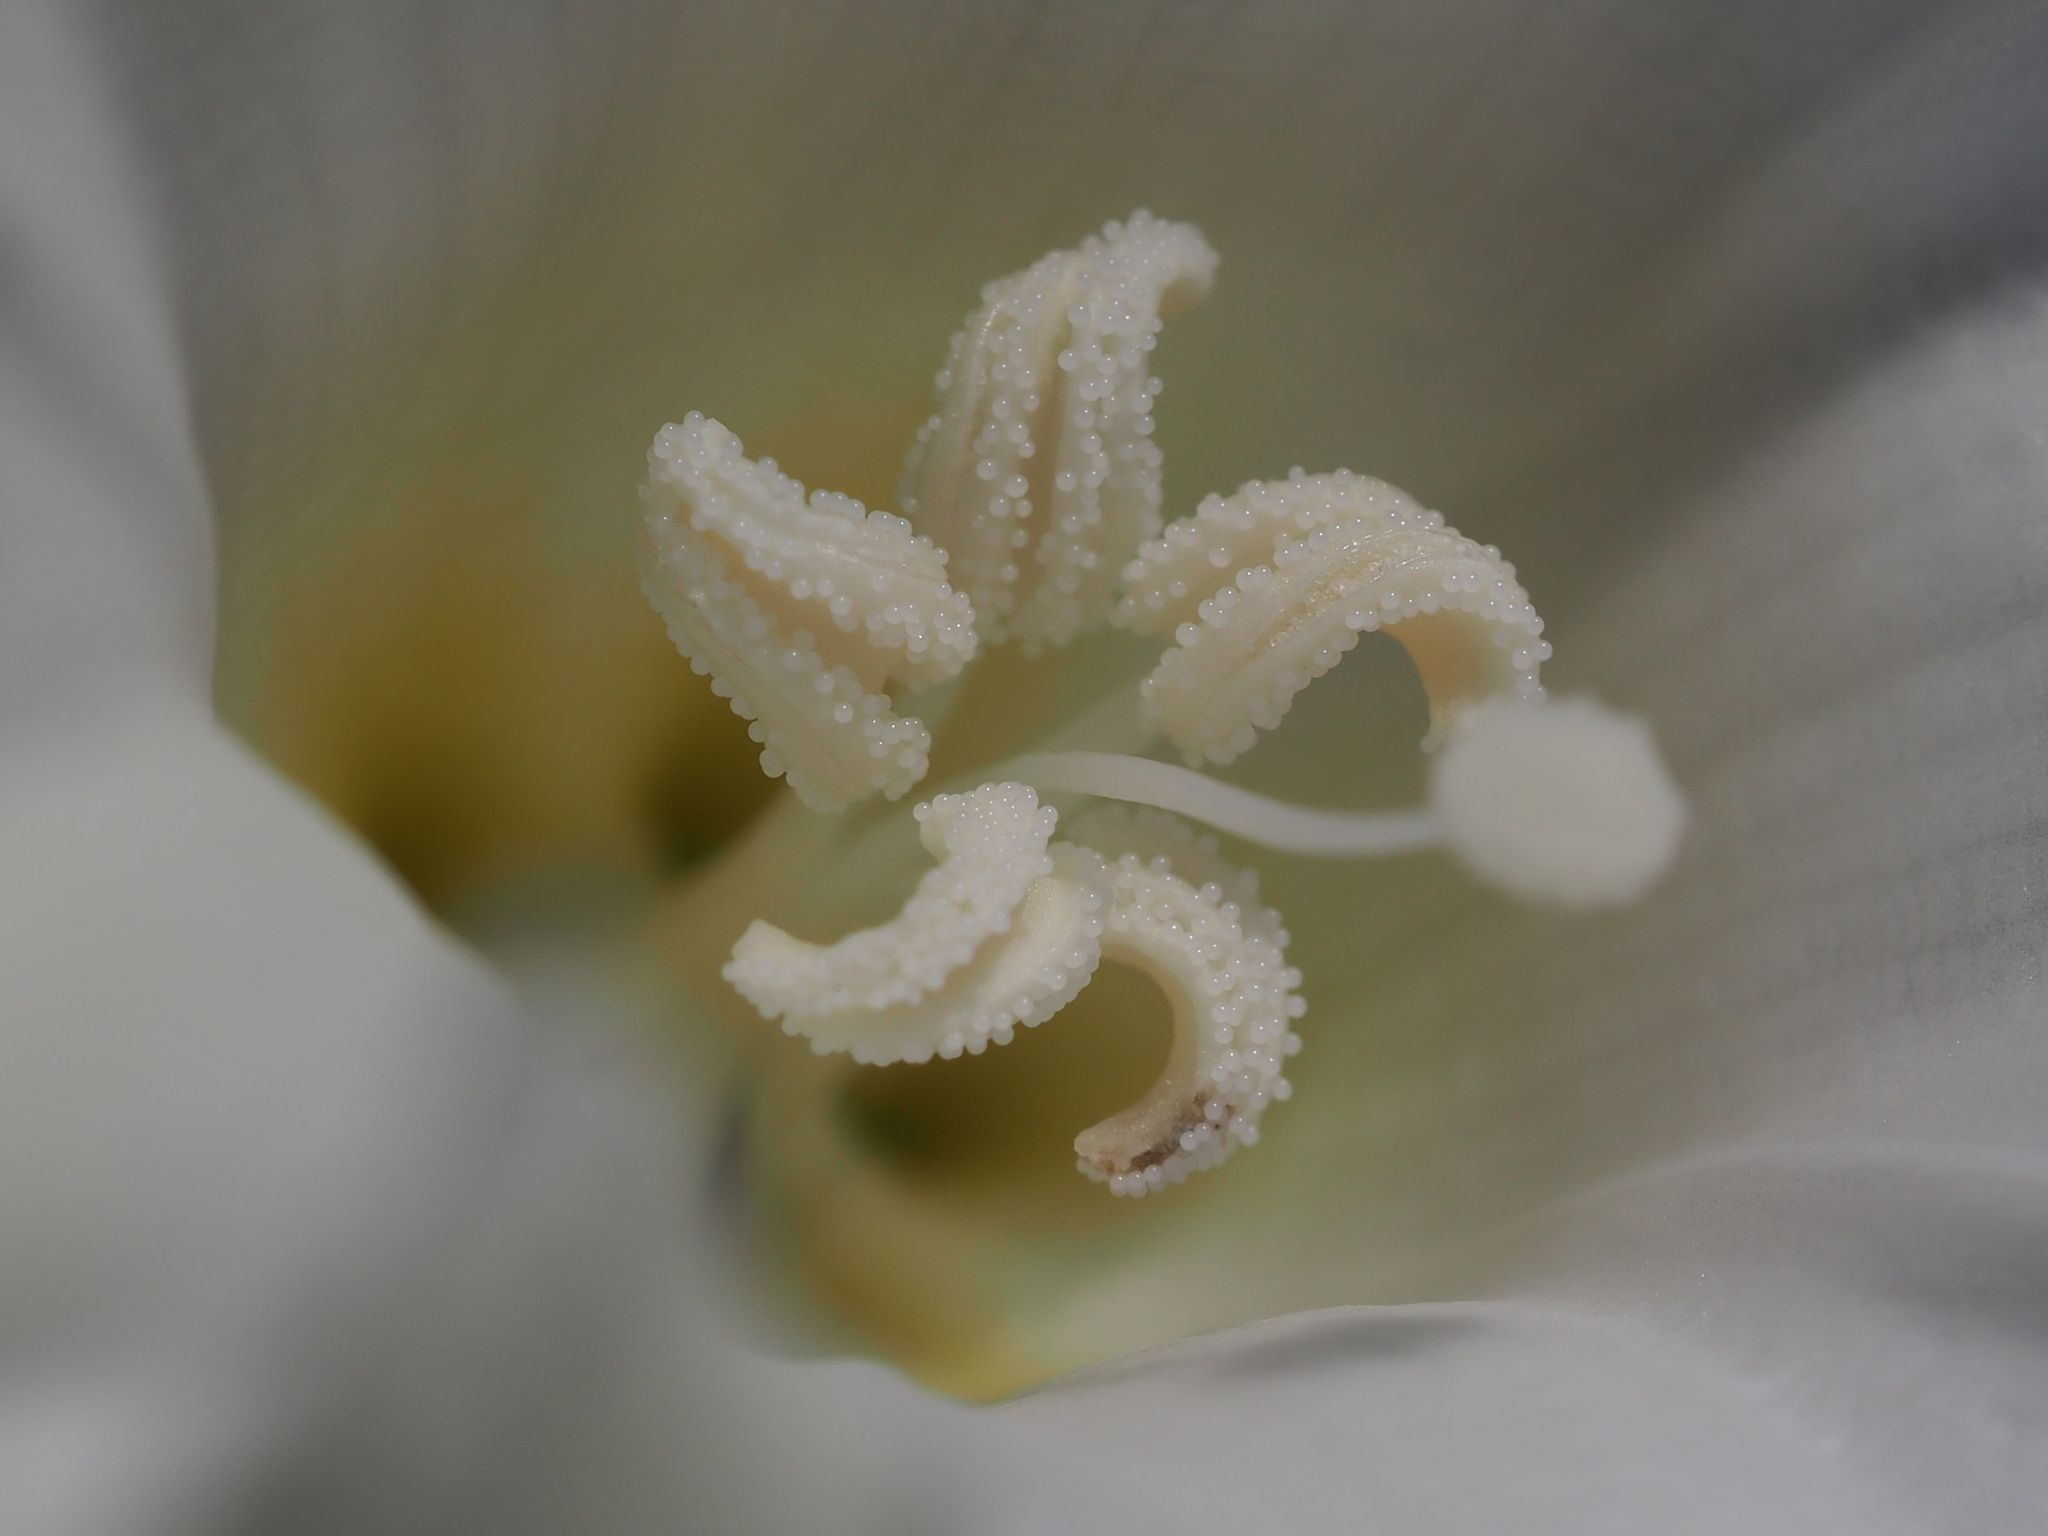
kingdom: Plantae
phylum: Tracheophyta
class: Magnoliopsida
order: Solanales
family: Convolvulaceae
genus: Operculina
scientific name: Operculina turpethum
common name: Transparent wood-rose
